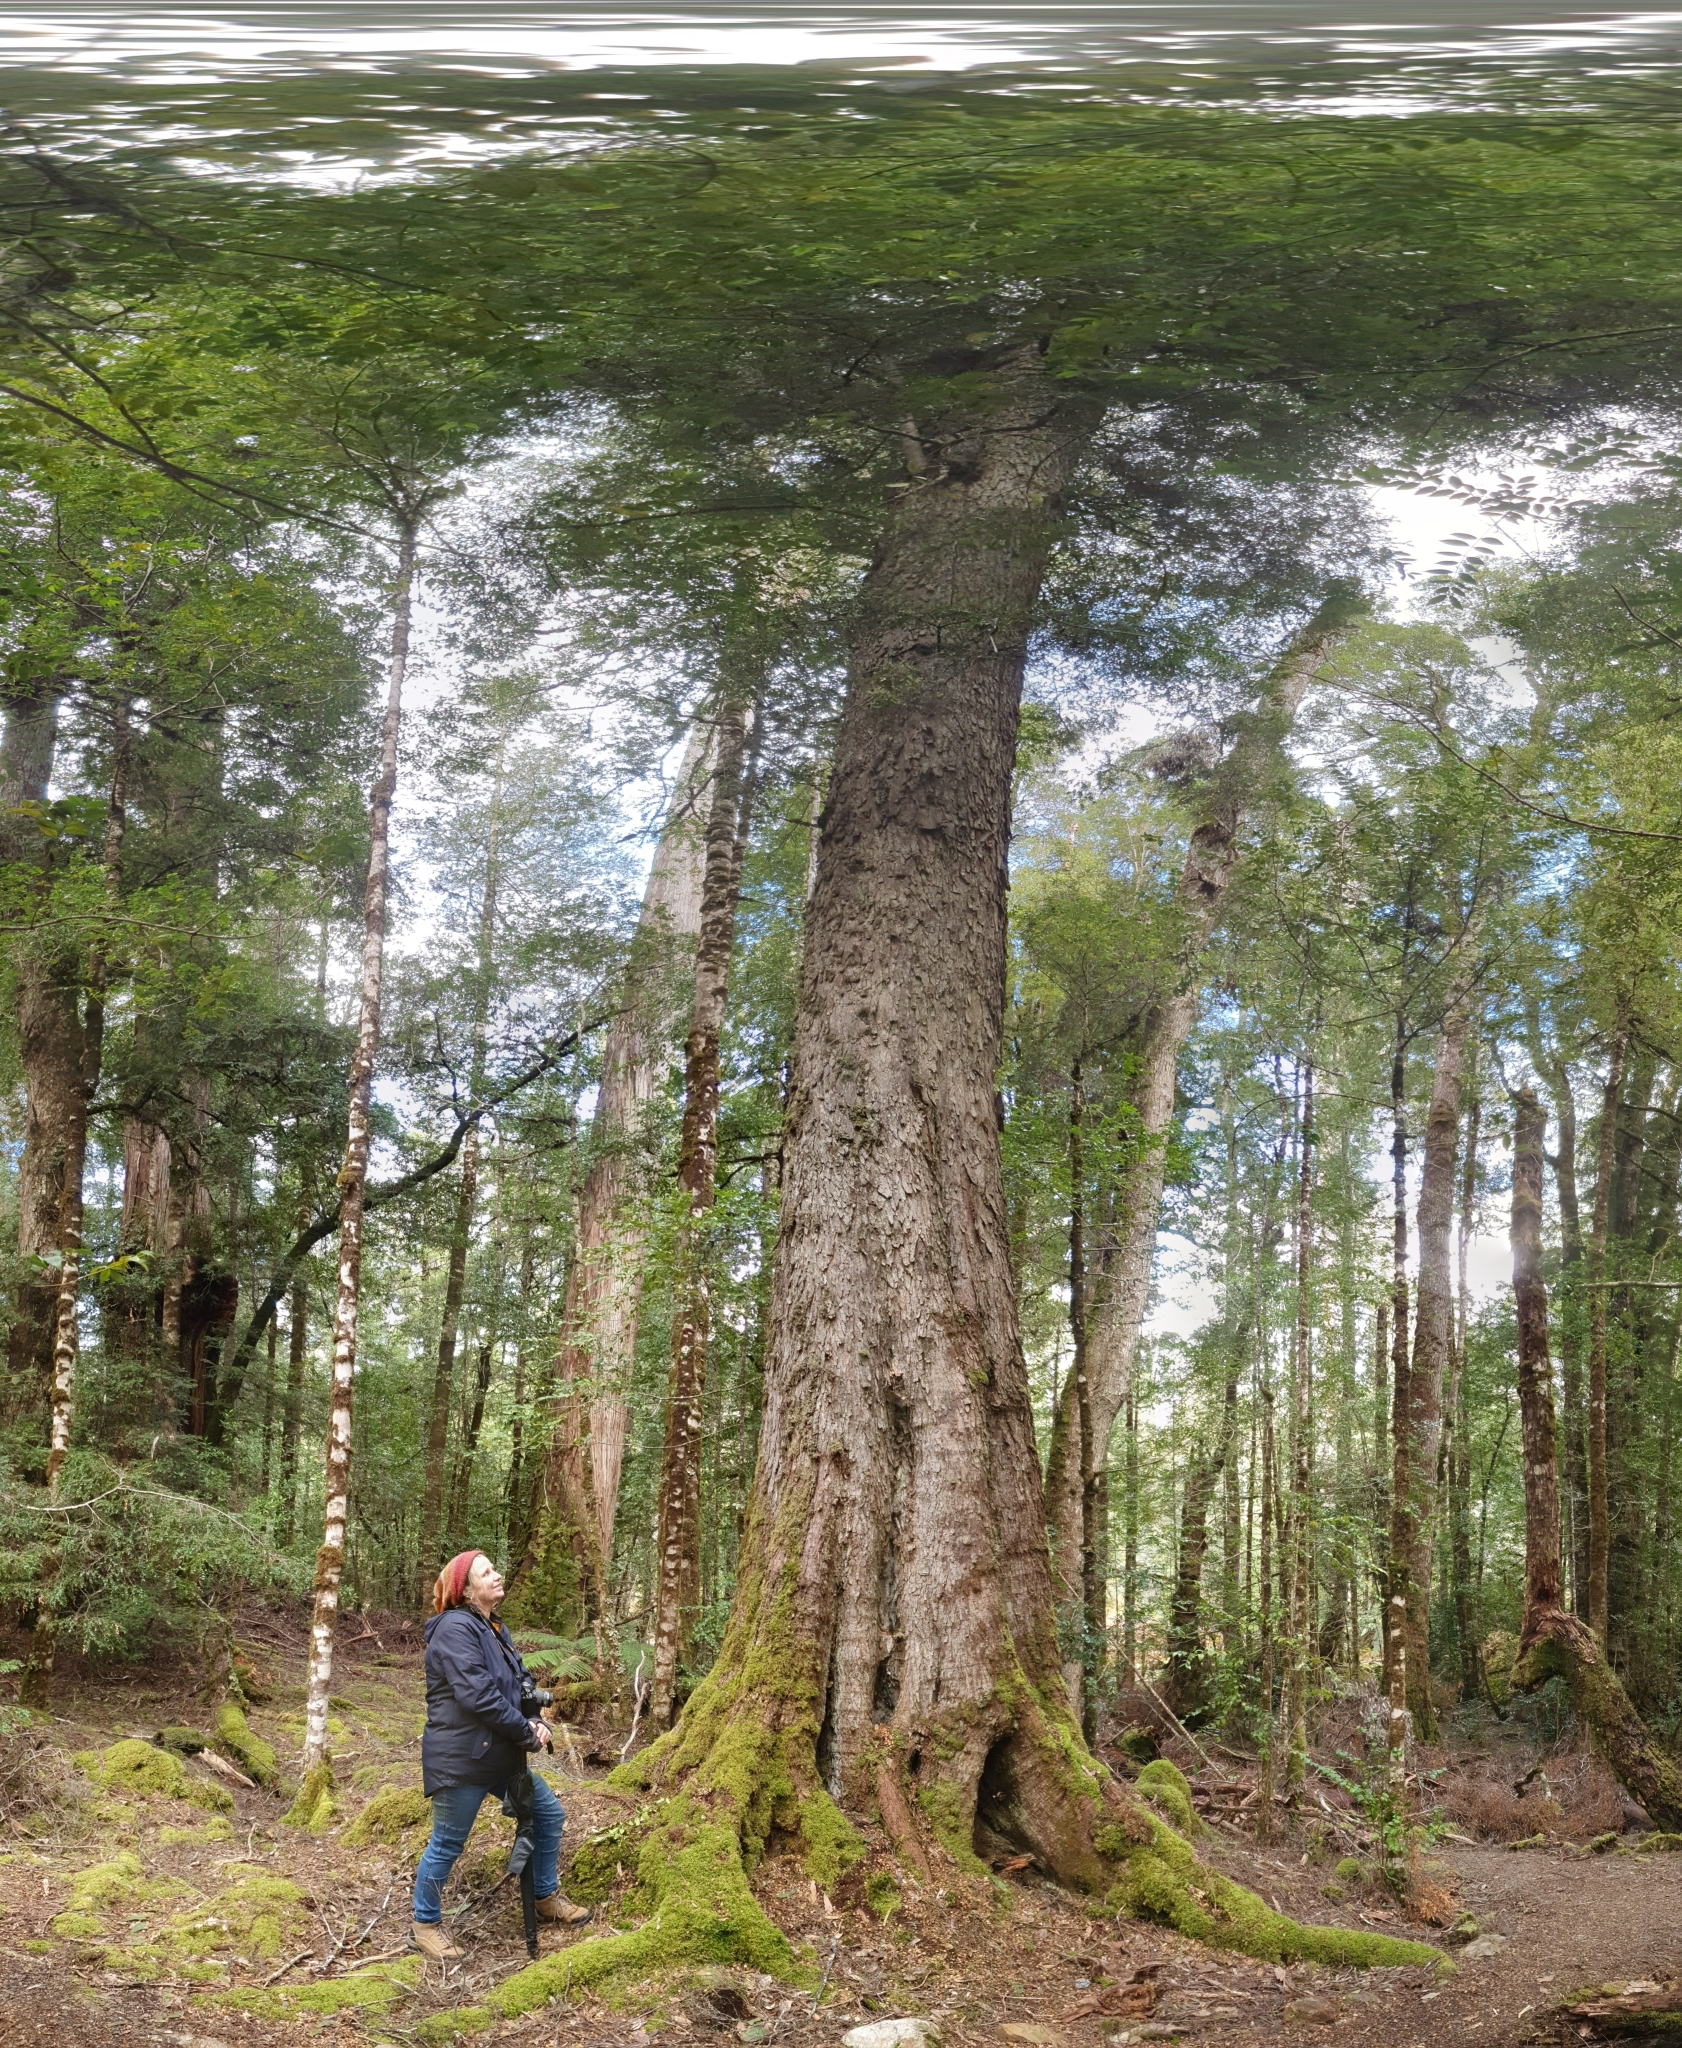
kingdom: Plantae
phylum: Tracheophyta
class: Magnoliopsida
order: Fagales
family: Nothofagaceae
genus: Nothofagus
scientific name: Nothofagus cunninghamii
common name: Myrtle beech
